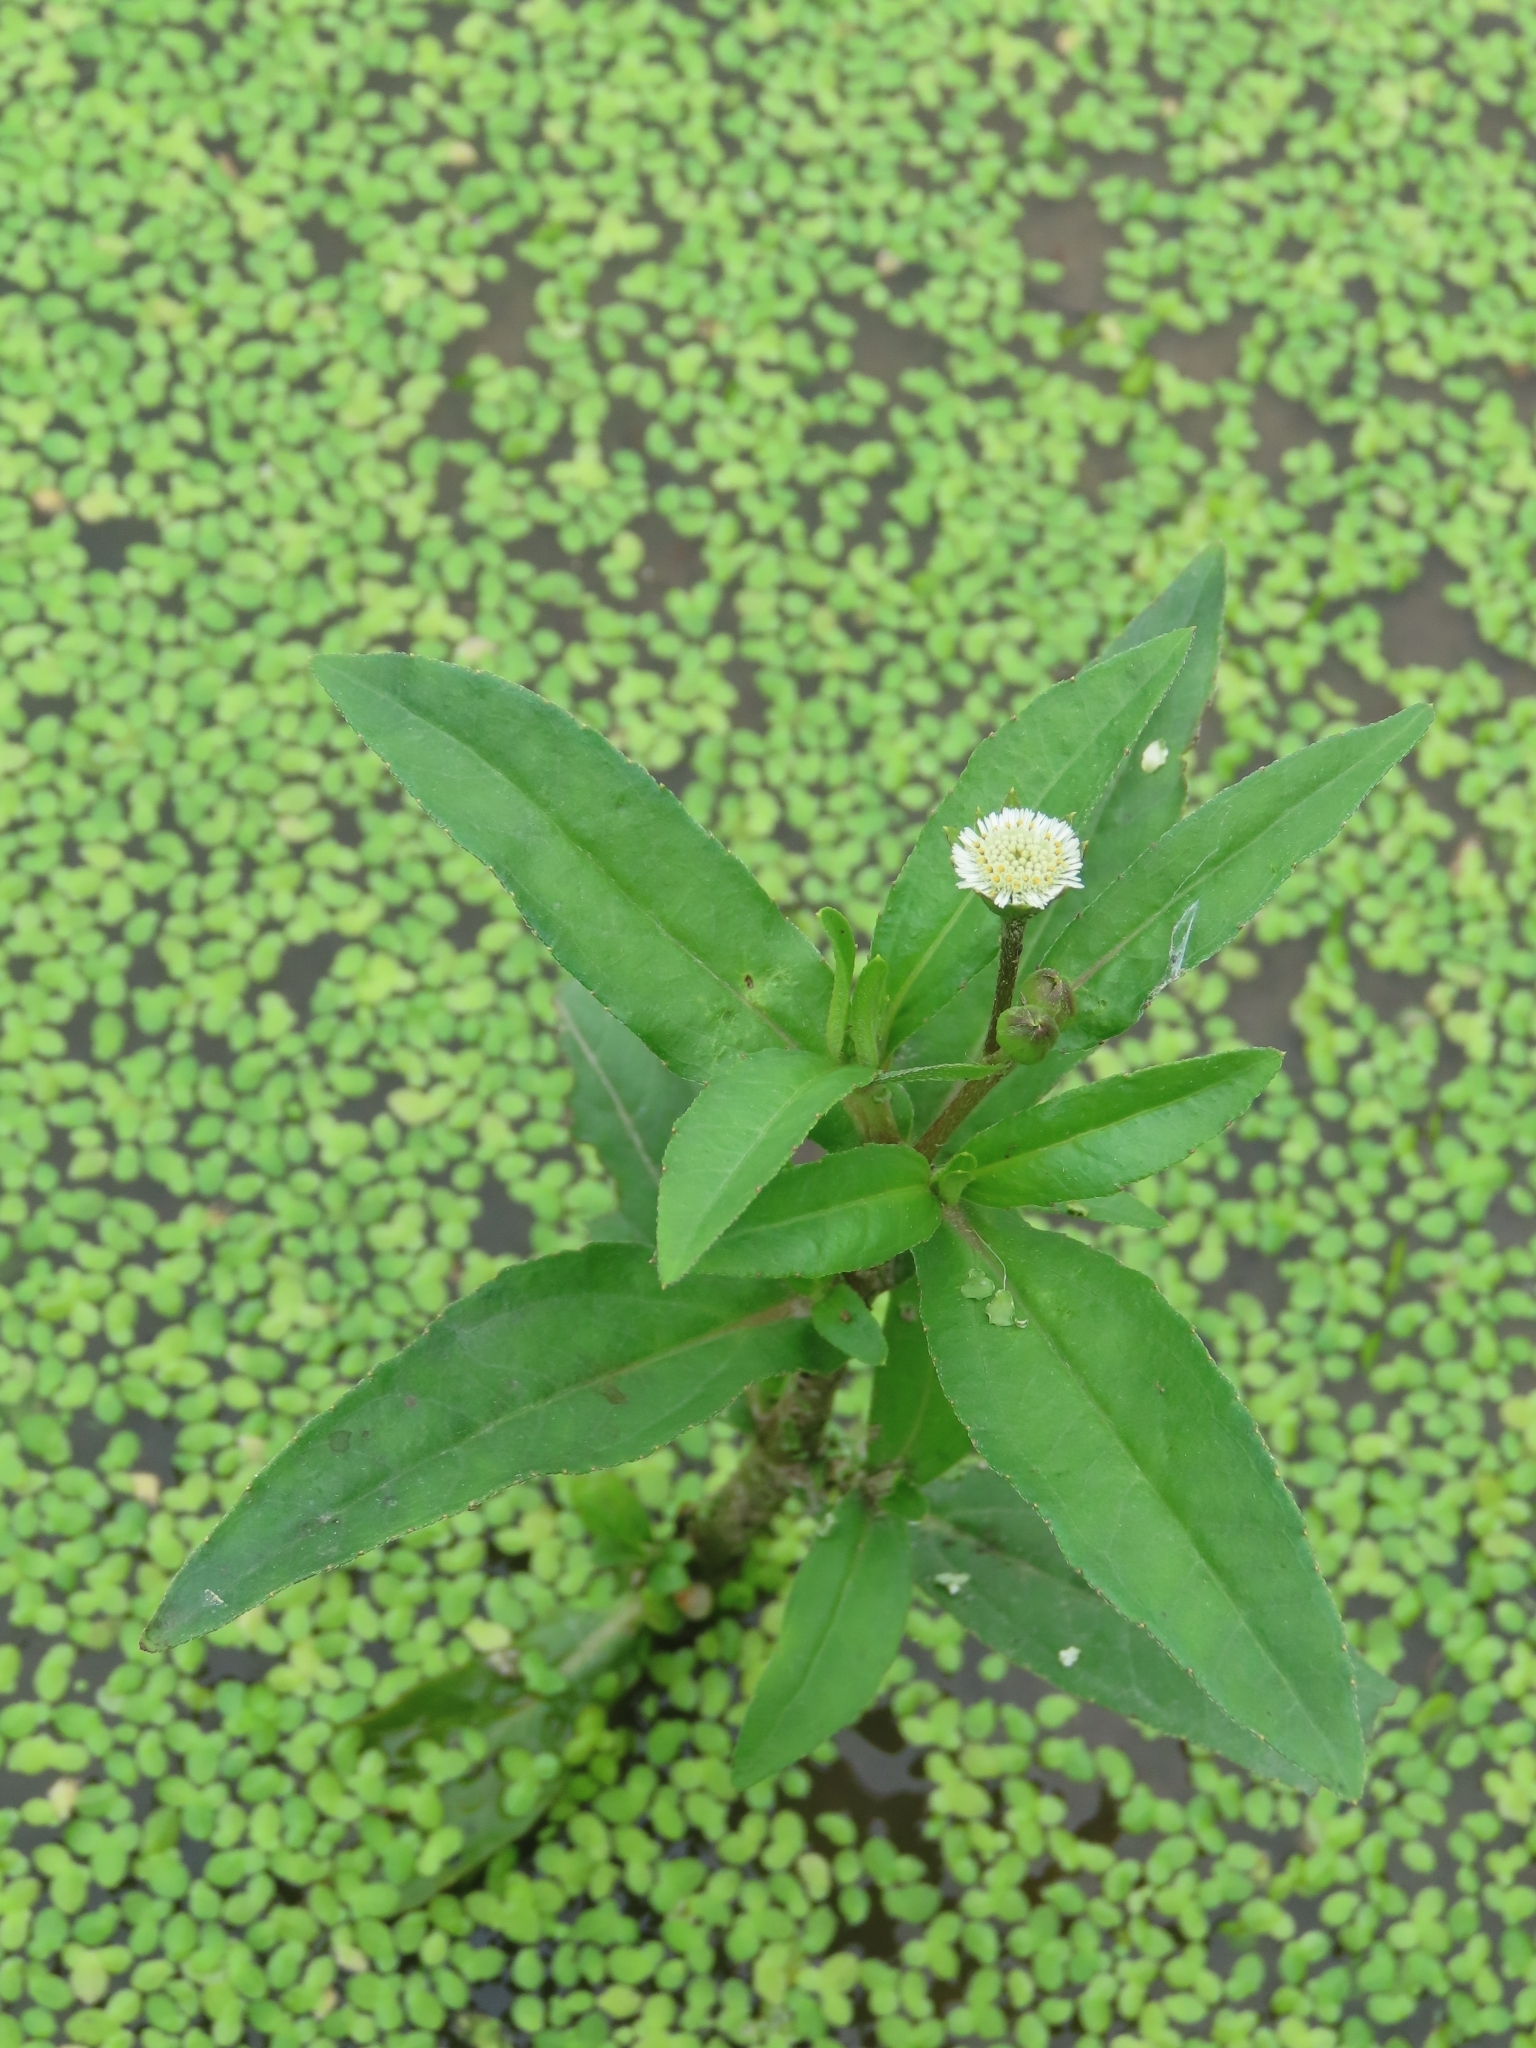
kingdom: Plantae
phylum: Tracheophyta
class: Magnoliopsida
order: Asterales
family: Asteraceae
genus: Eclipta
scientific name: Eclipta prostrata
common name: False daisy
